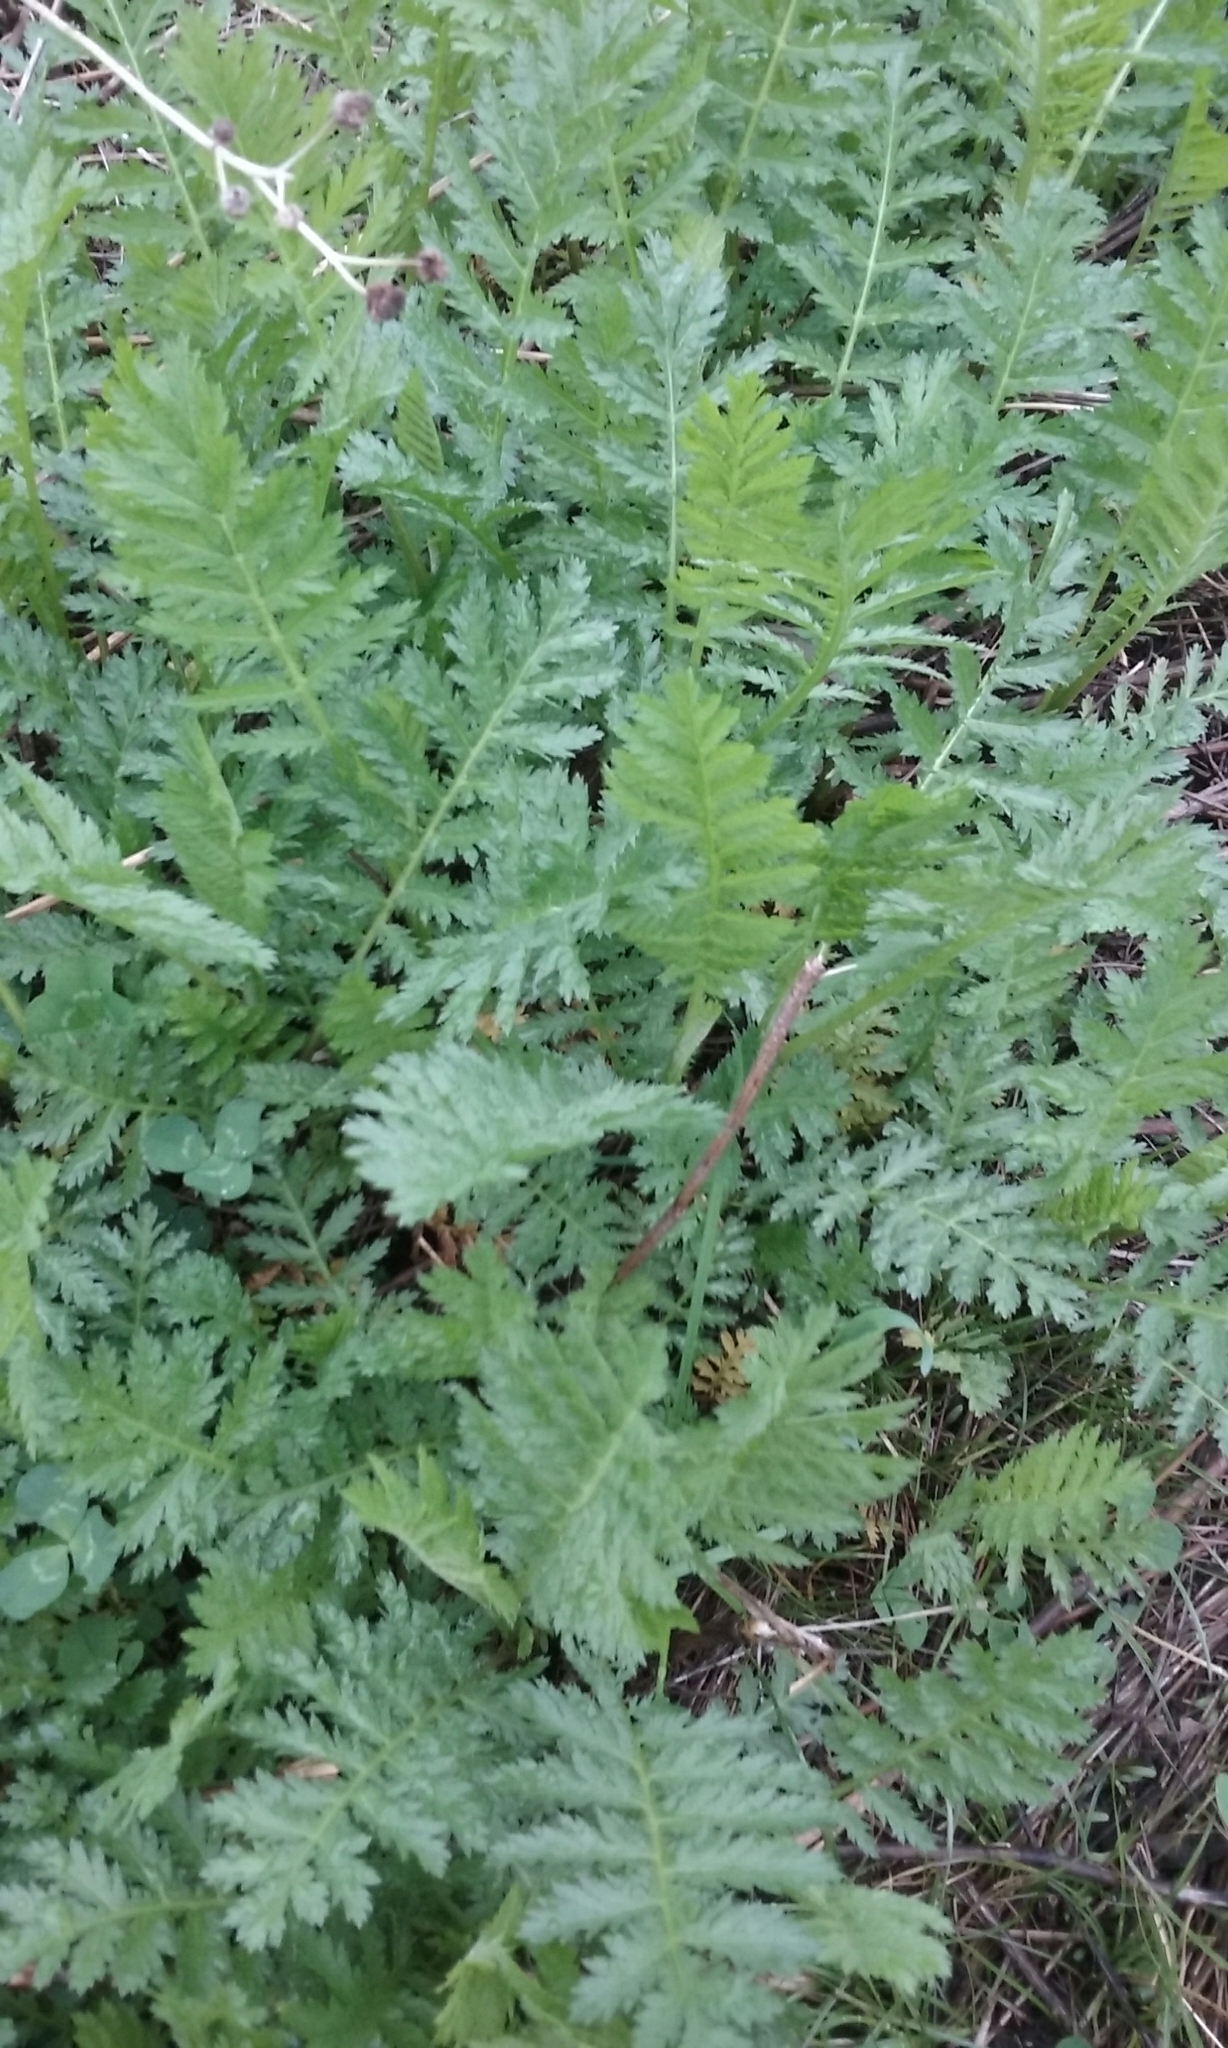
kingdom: Plantae
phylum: Tracheophyta
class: Magnoliopsida
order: Asterales
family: Asteraceae
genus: Tanacetum
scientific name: Tanacetum vulgare
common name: Common tansy
